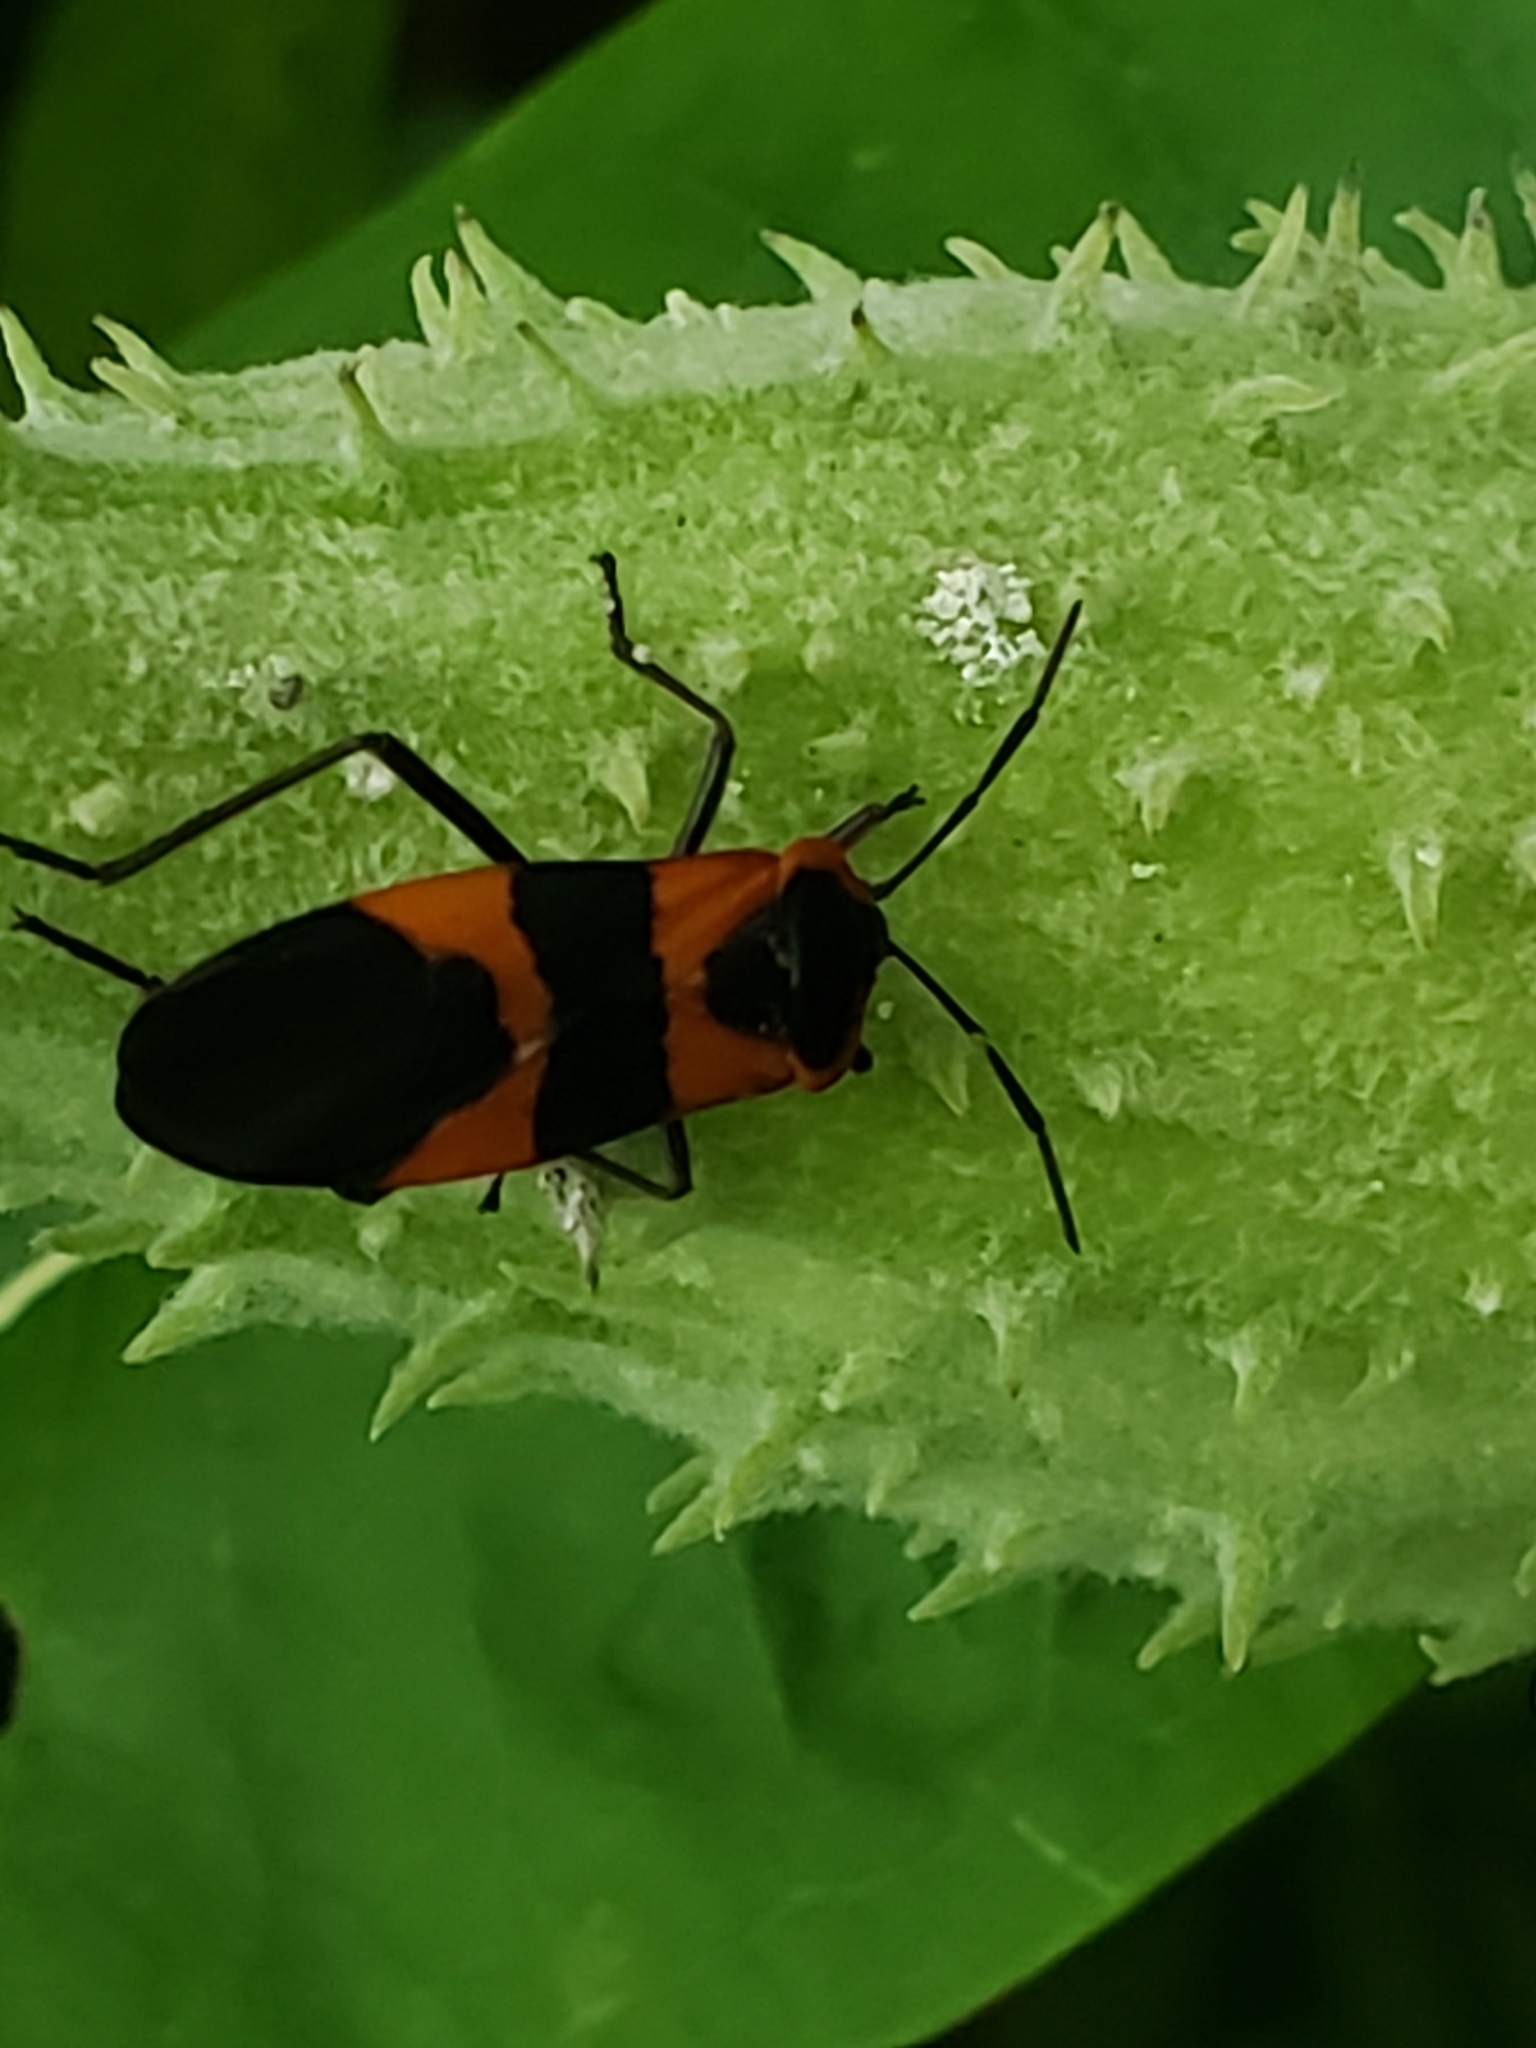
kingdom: Animalia
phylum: Arthropoda
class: Insecta
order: Hemiptera
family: Lygaeidae
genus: Oncopeltus
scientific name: Oncopeltus fasciatus
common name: Large milkweed bug
